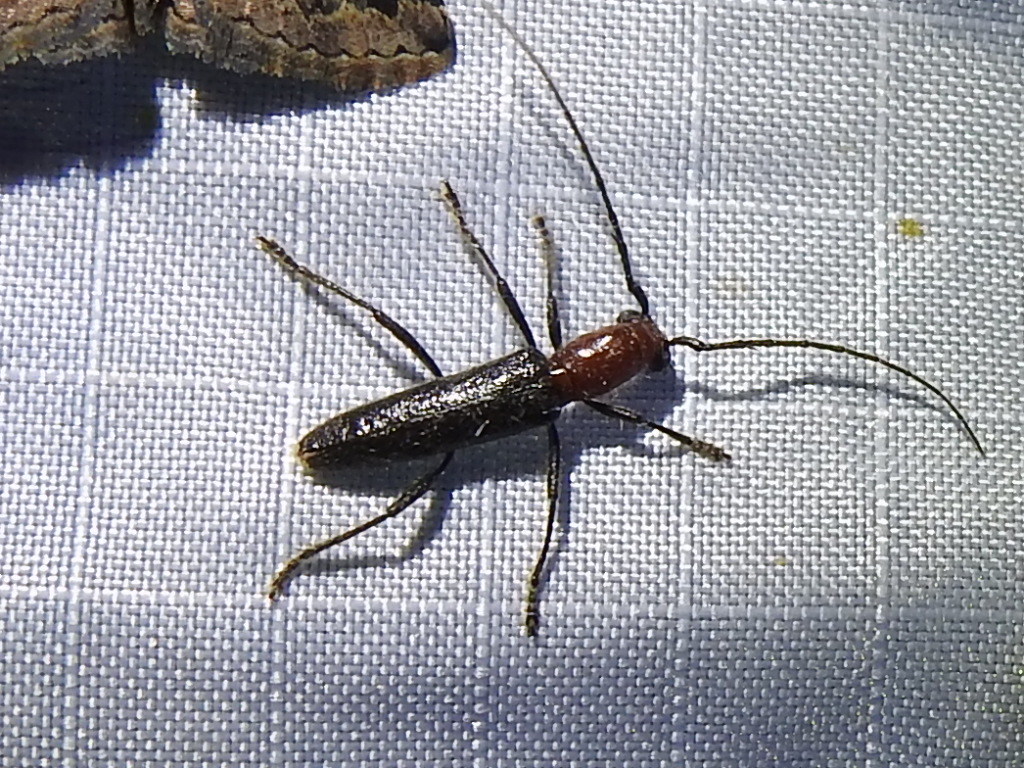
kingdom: Animalia
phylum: Arthropoda
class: Insecta
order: Coleoptera
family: Cerambycidae
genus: Psyrassa
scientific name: Psyrassa brevicornis
